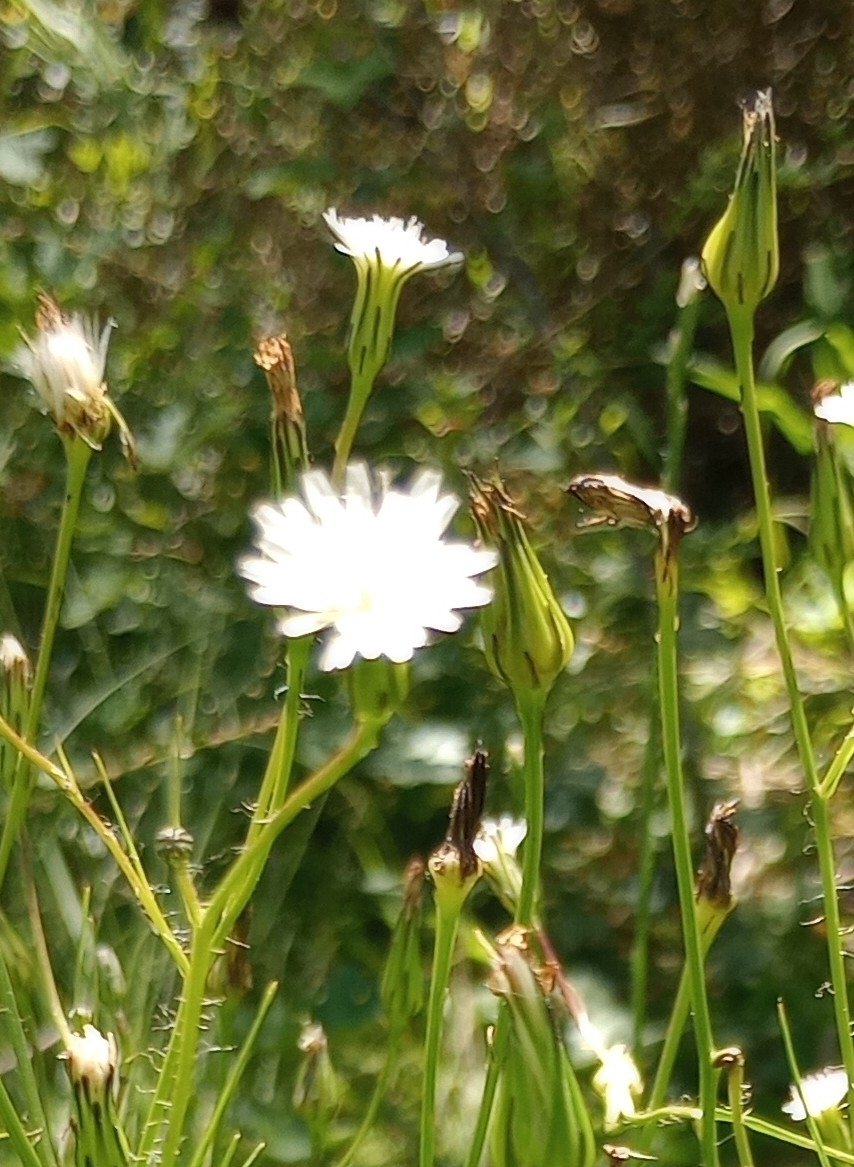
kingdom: Plantae
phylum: Tracheophyta
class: Magnoliopsida
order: Asterales
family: Asteraceae
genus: Hypochaeris
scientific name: Hypochaeris albiflora
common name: White flatweed
